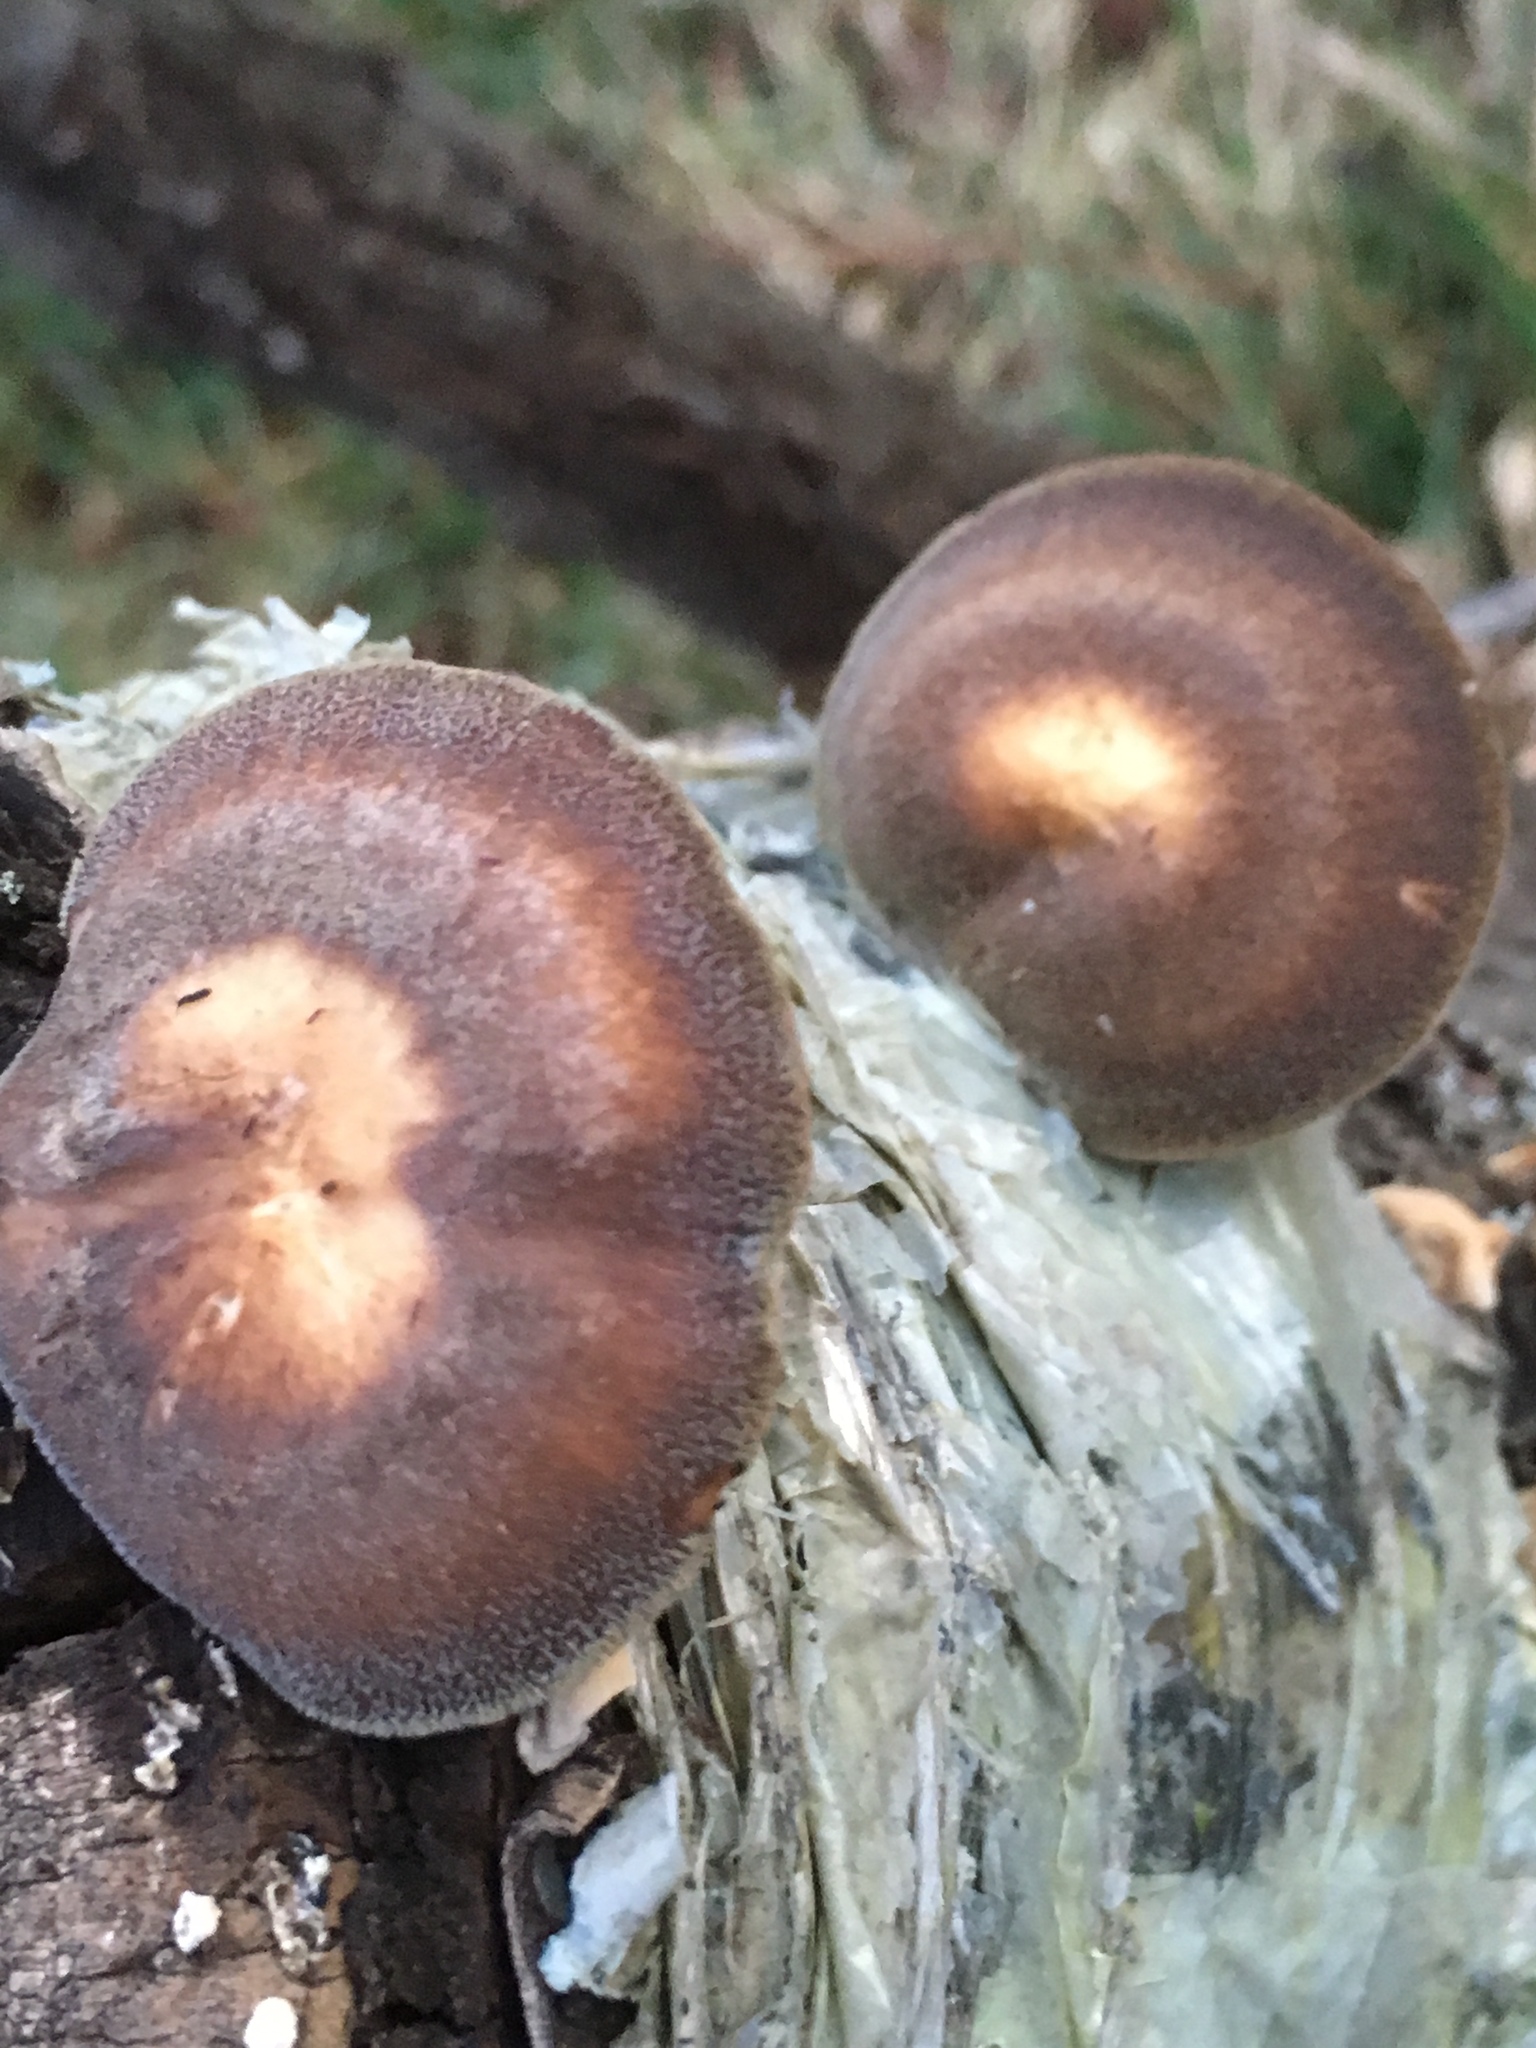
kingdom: Fungi
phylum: Basidiomycota
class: Agaricomycetes
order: Polyporales
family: Polyporaceae
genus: Lentinus
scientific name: Lentinus brumalis
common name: Winter polypore
